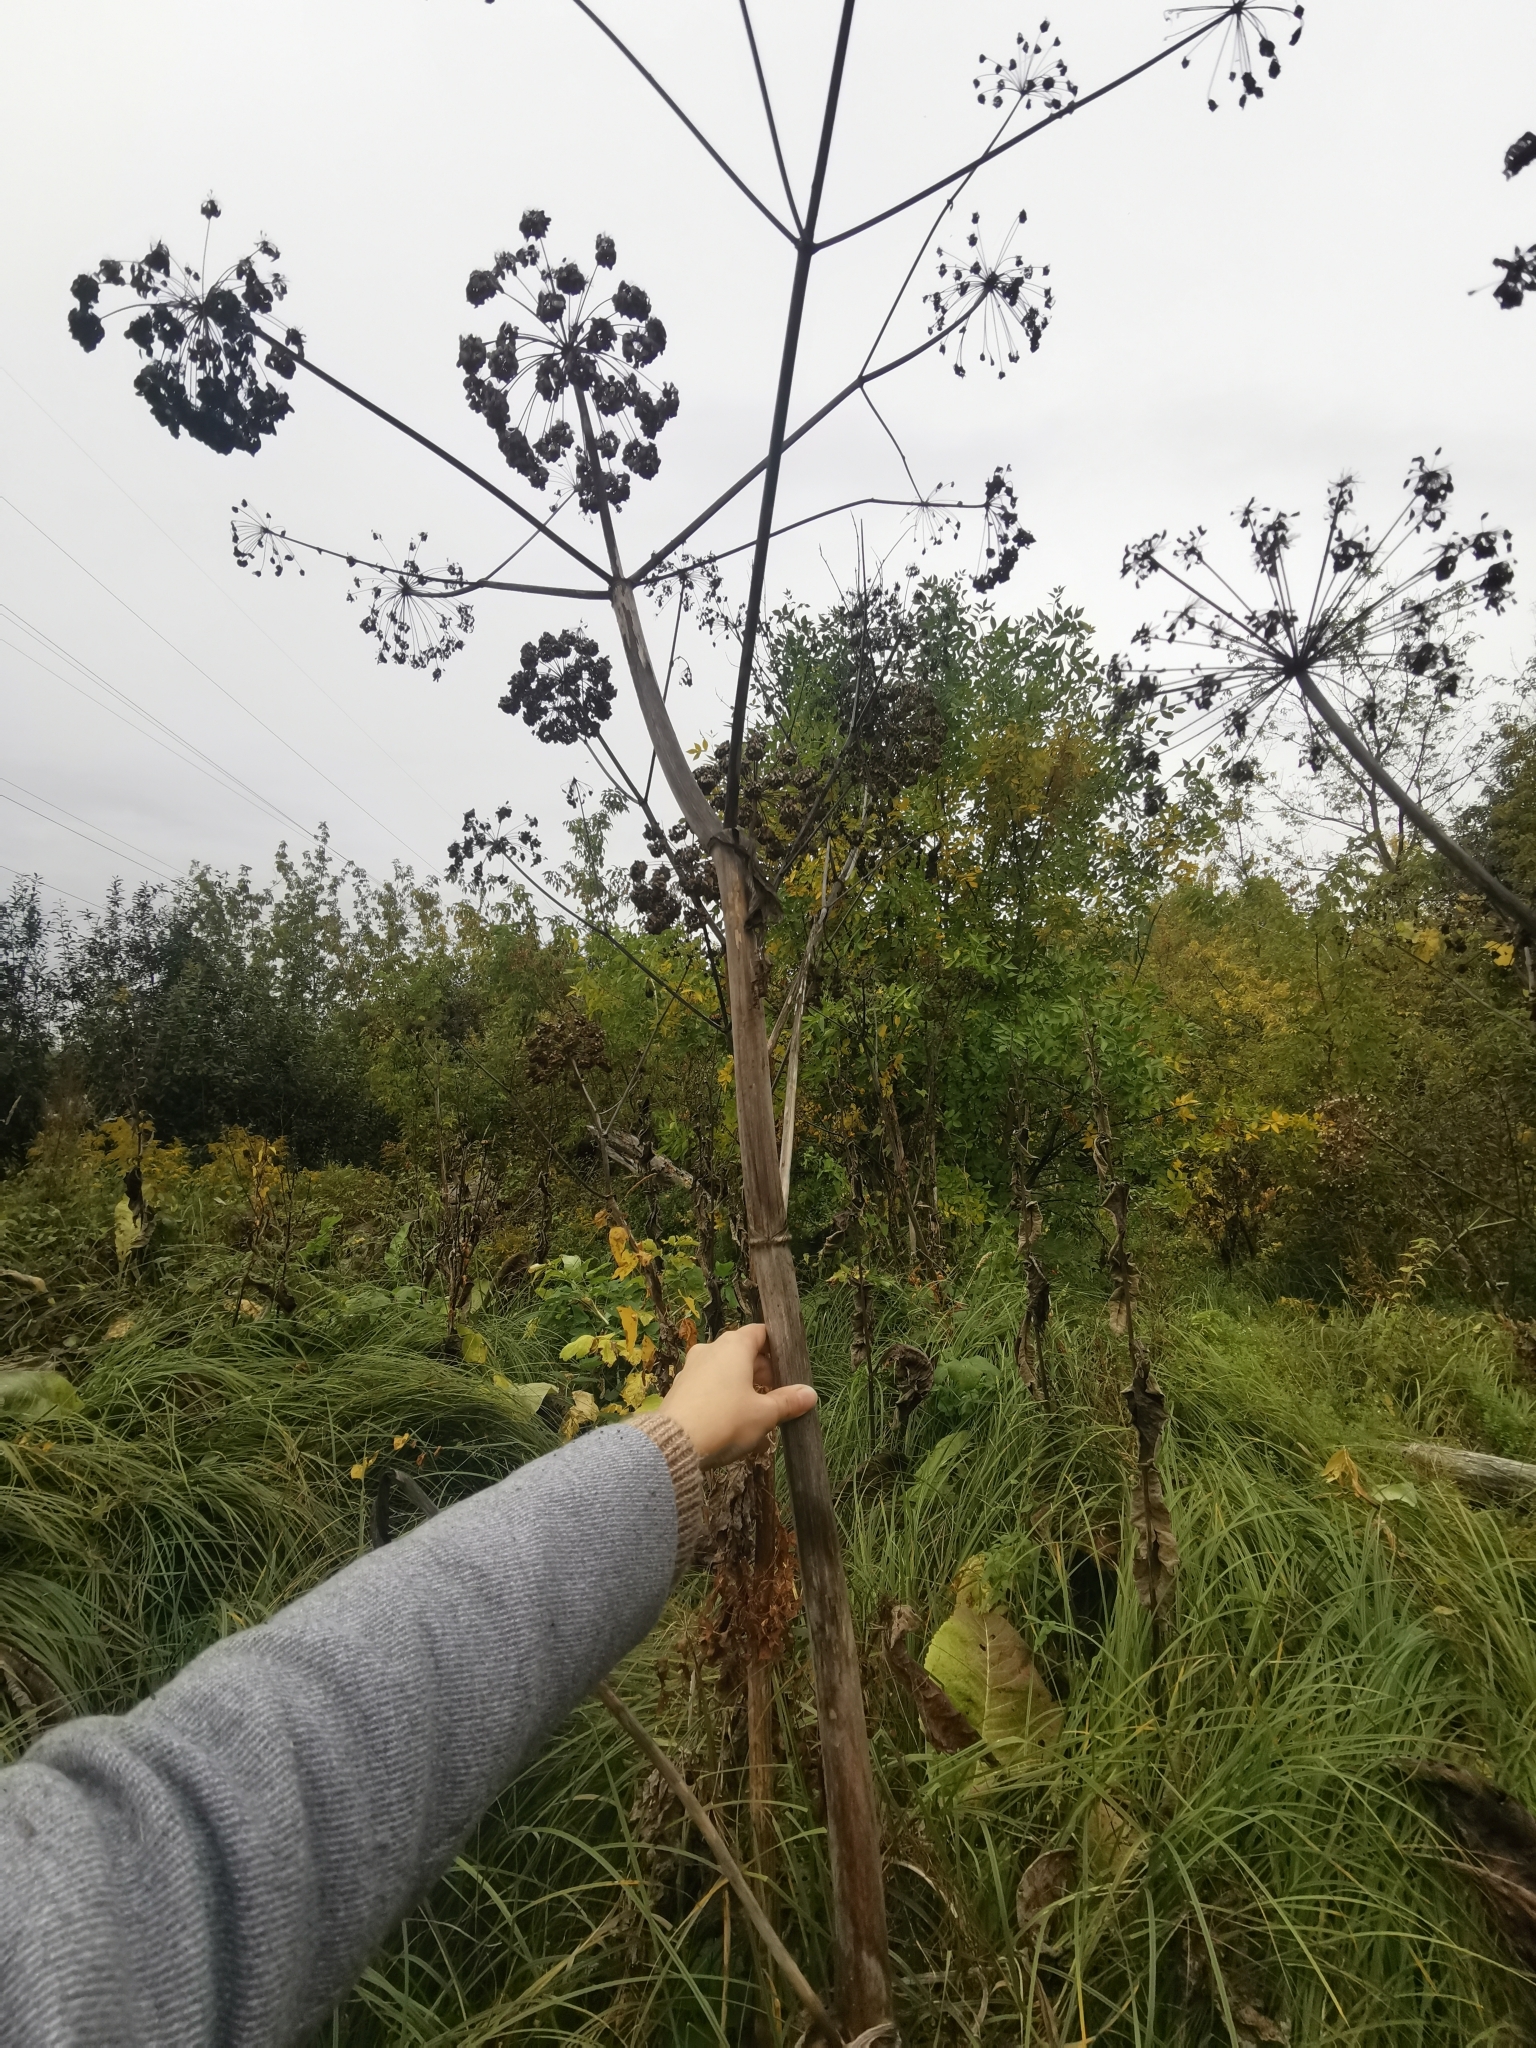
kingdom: Plantae
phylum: Tracheophyta
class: Magnoliopsida
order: Apiales
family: Apiaceae
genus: Heracleum
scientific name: Heracleum sosnowskyi
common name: Sosnowsky's hogweed
